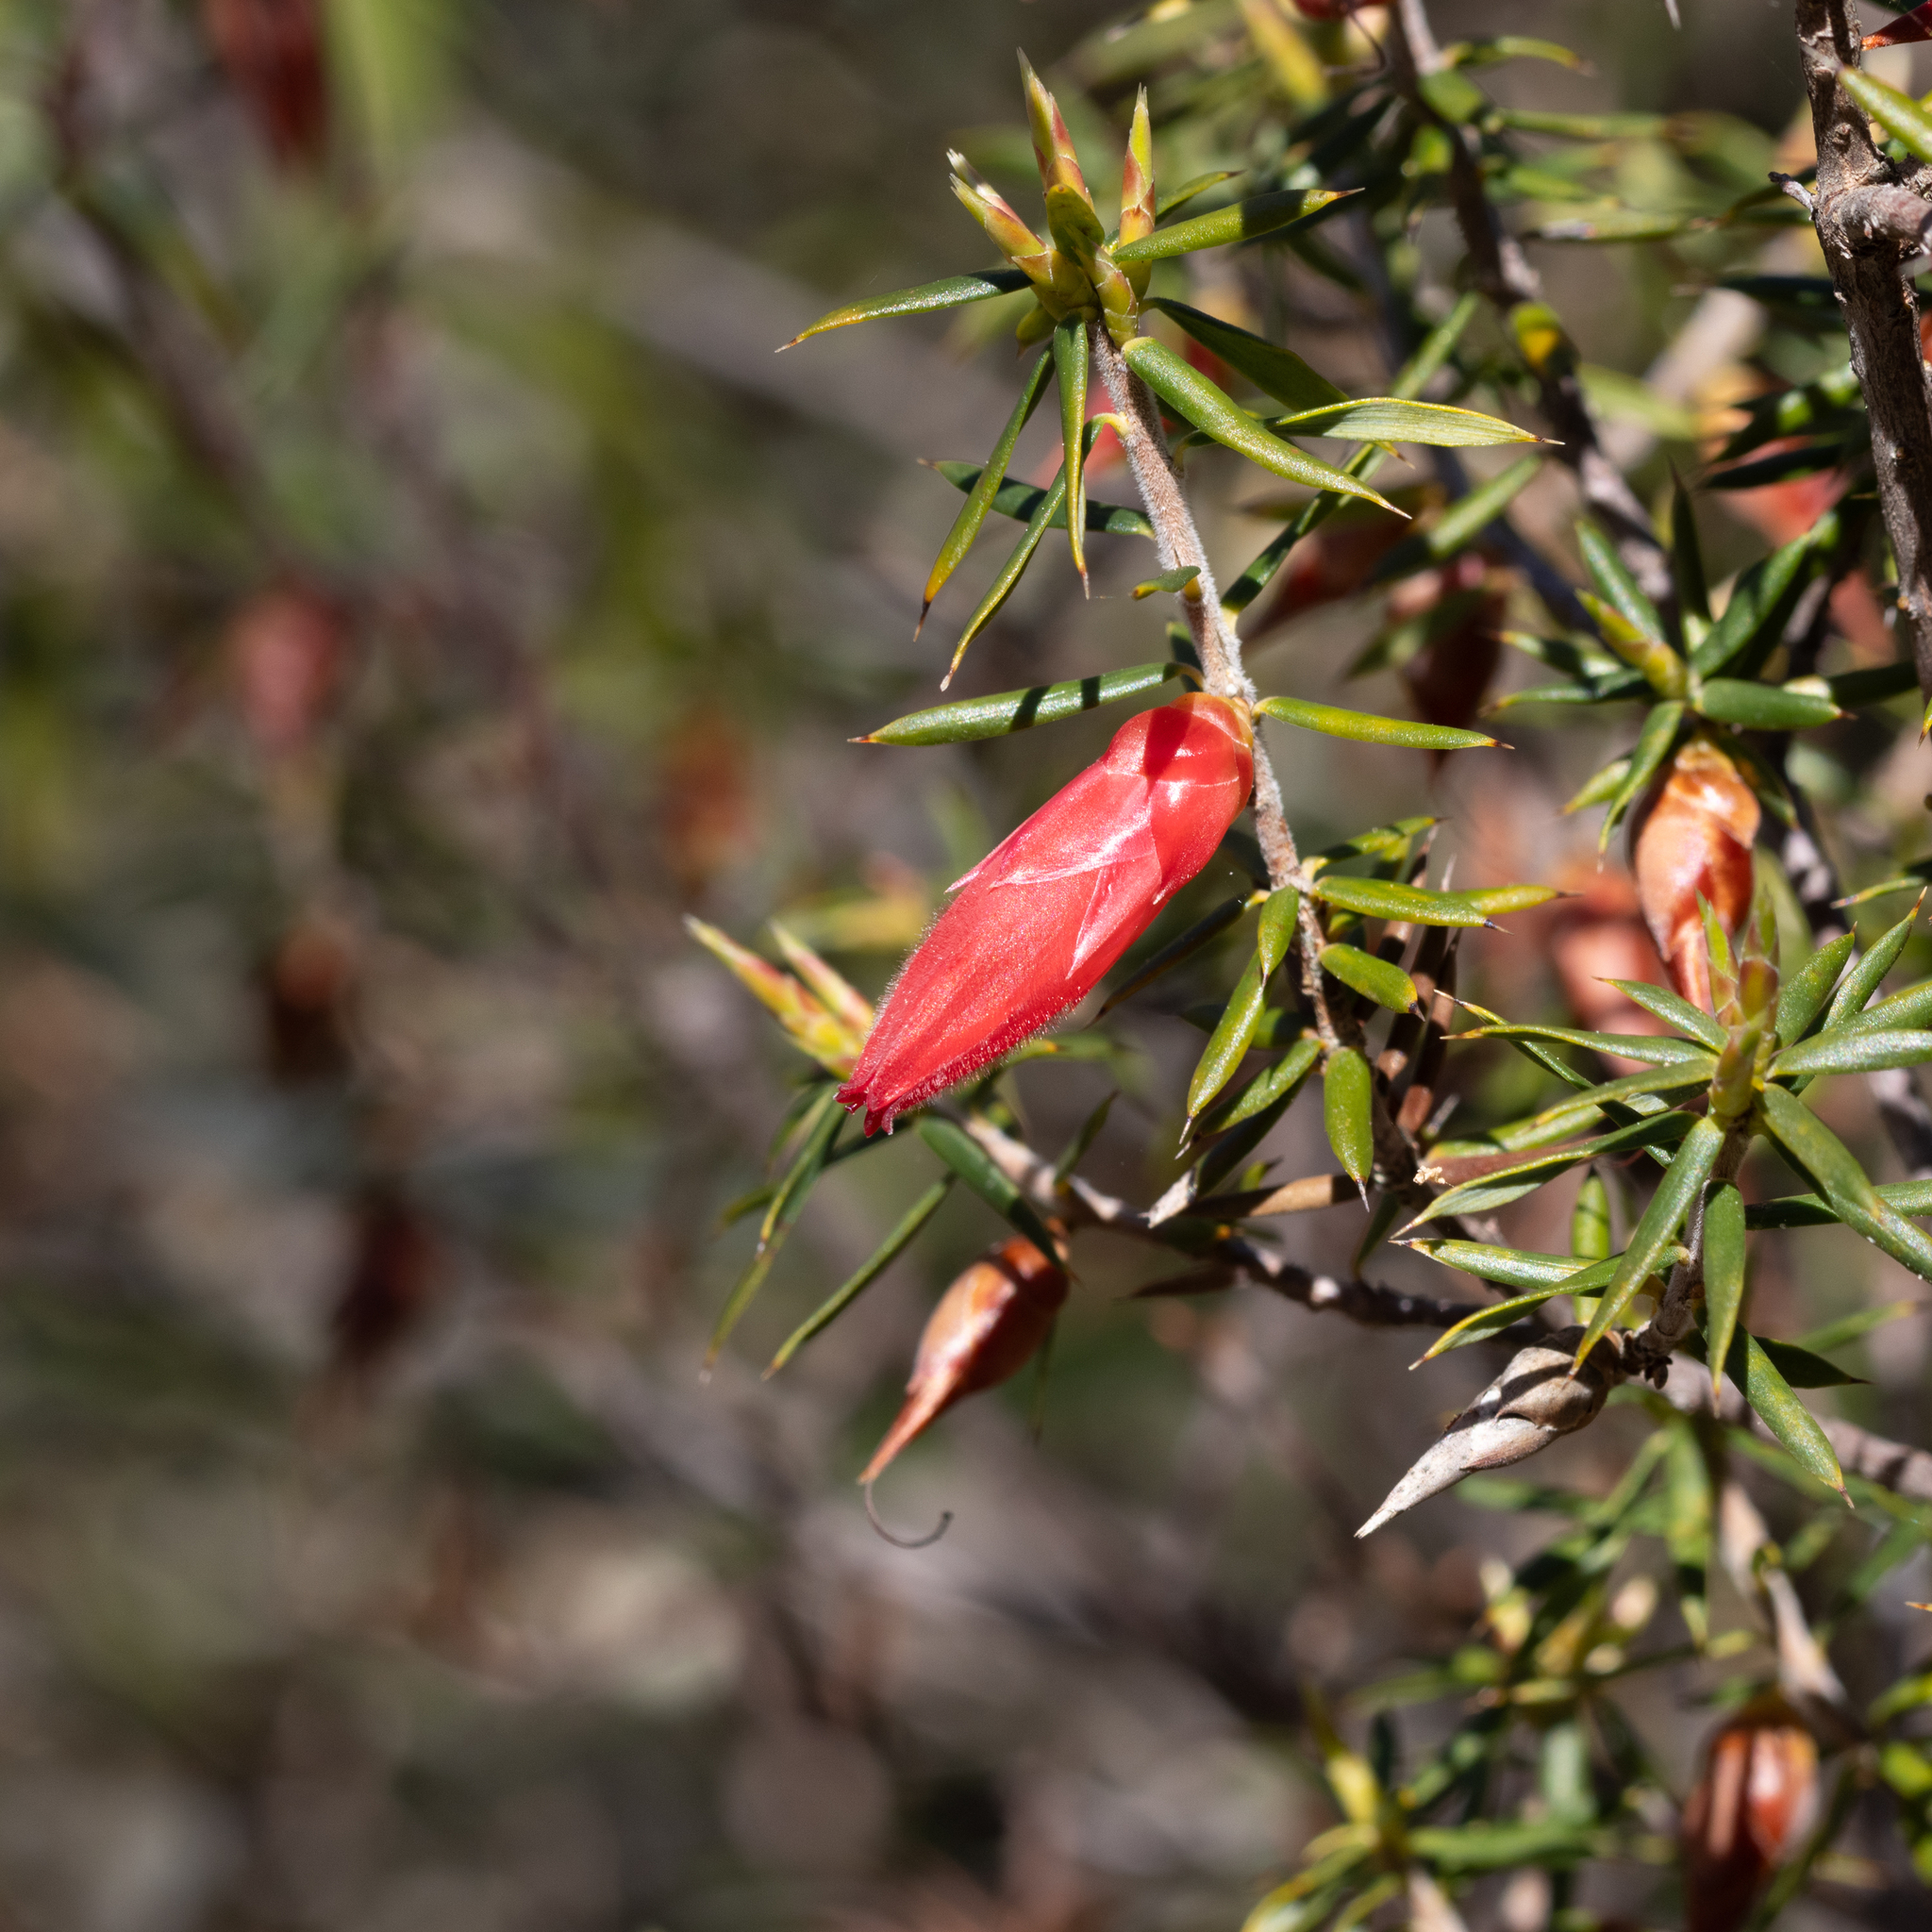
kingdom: Plantae
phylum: Tracheophyta
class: Magnoliopsida
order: Ericales
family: Ericaceae
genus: Stenanthera
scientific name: Stenanthera conostephioides
